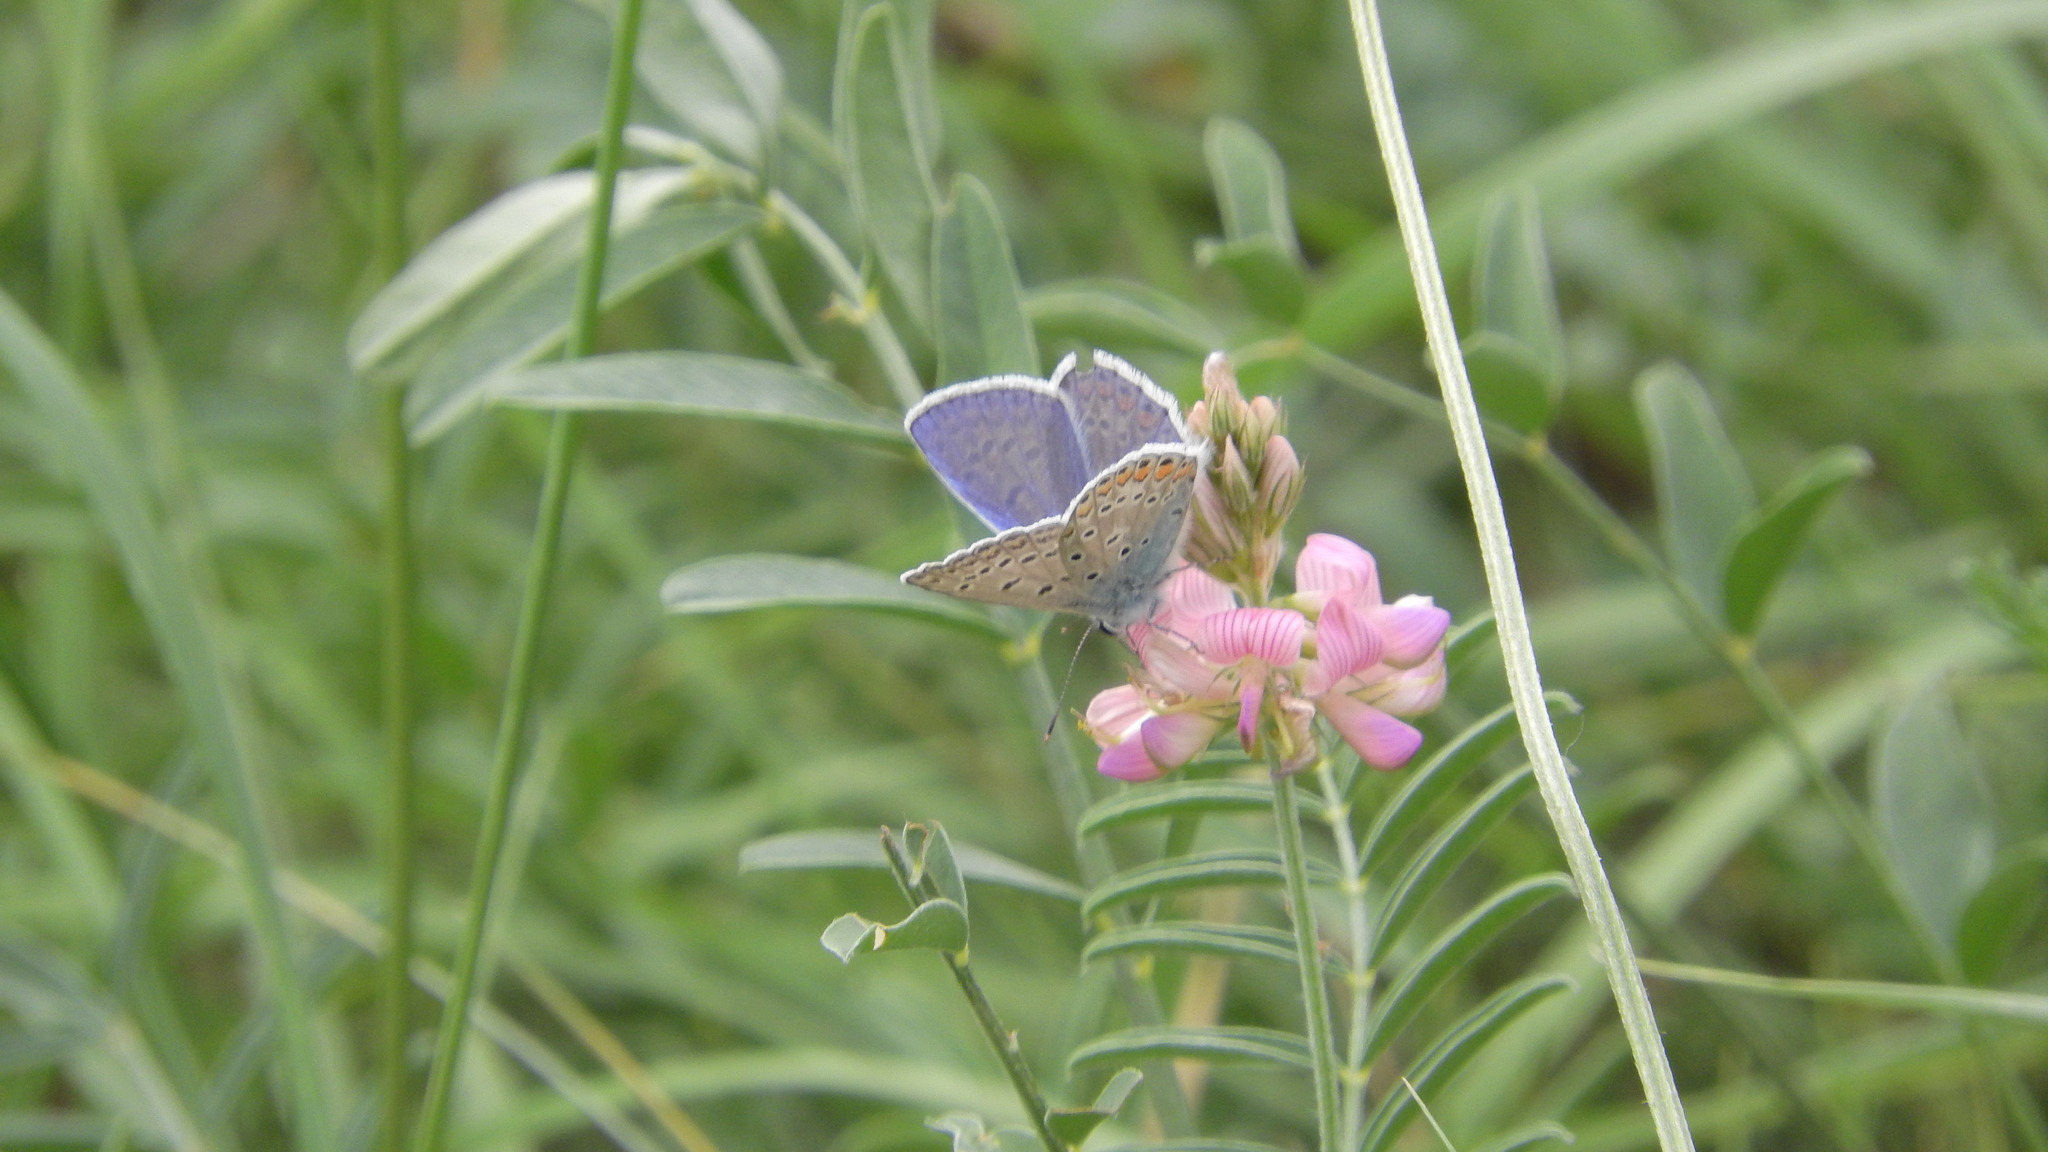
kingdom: Animalia
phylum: Arthropoda
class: Insecta
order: Lepidoptera
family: Lycaenidae
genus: Polyommatus
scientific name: Polyommatus icarus
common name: Common blue
